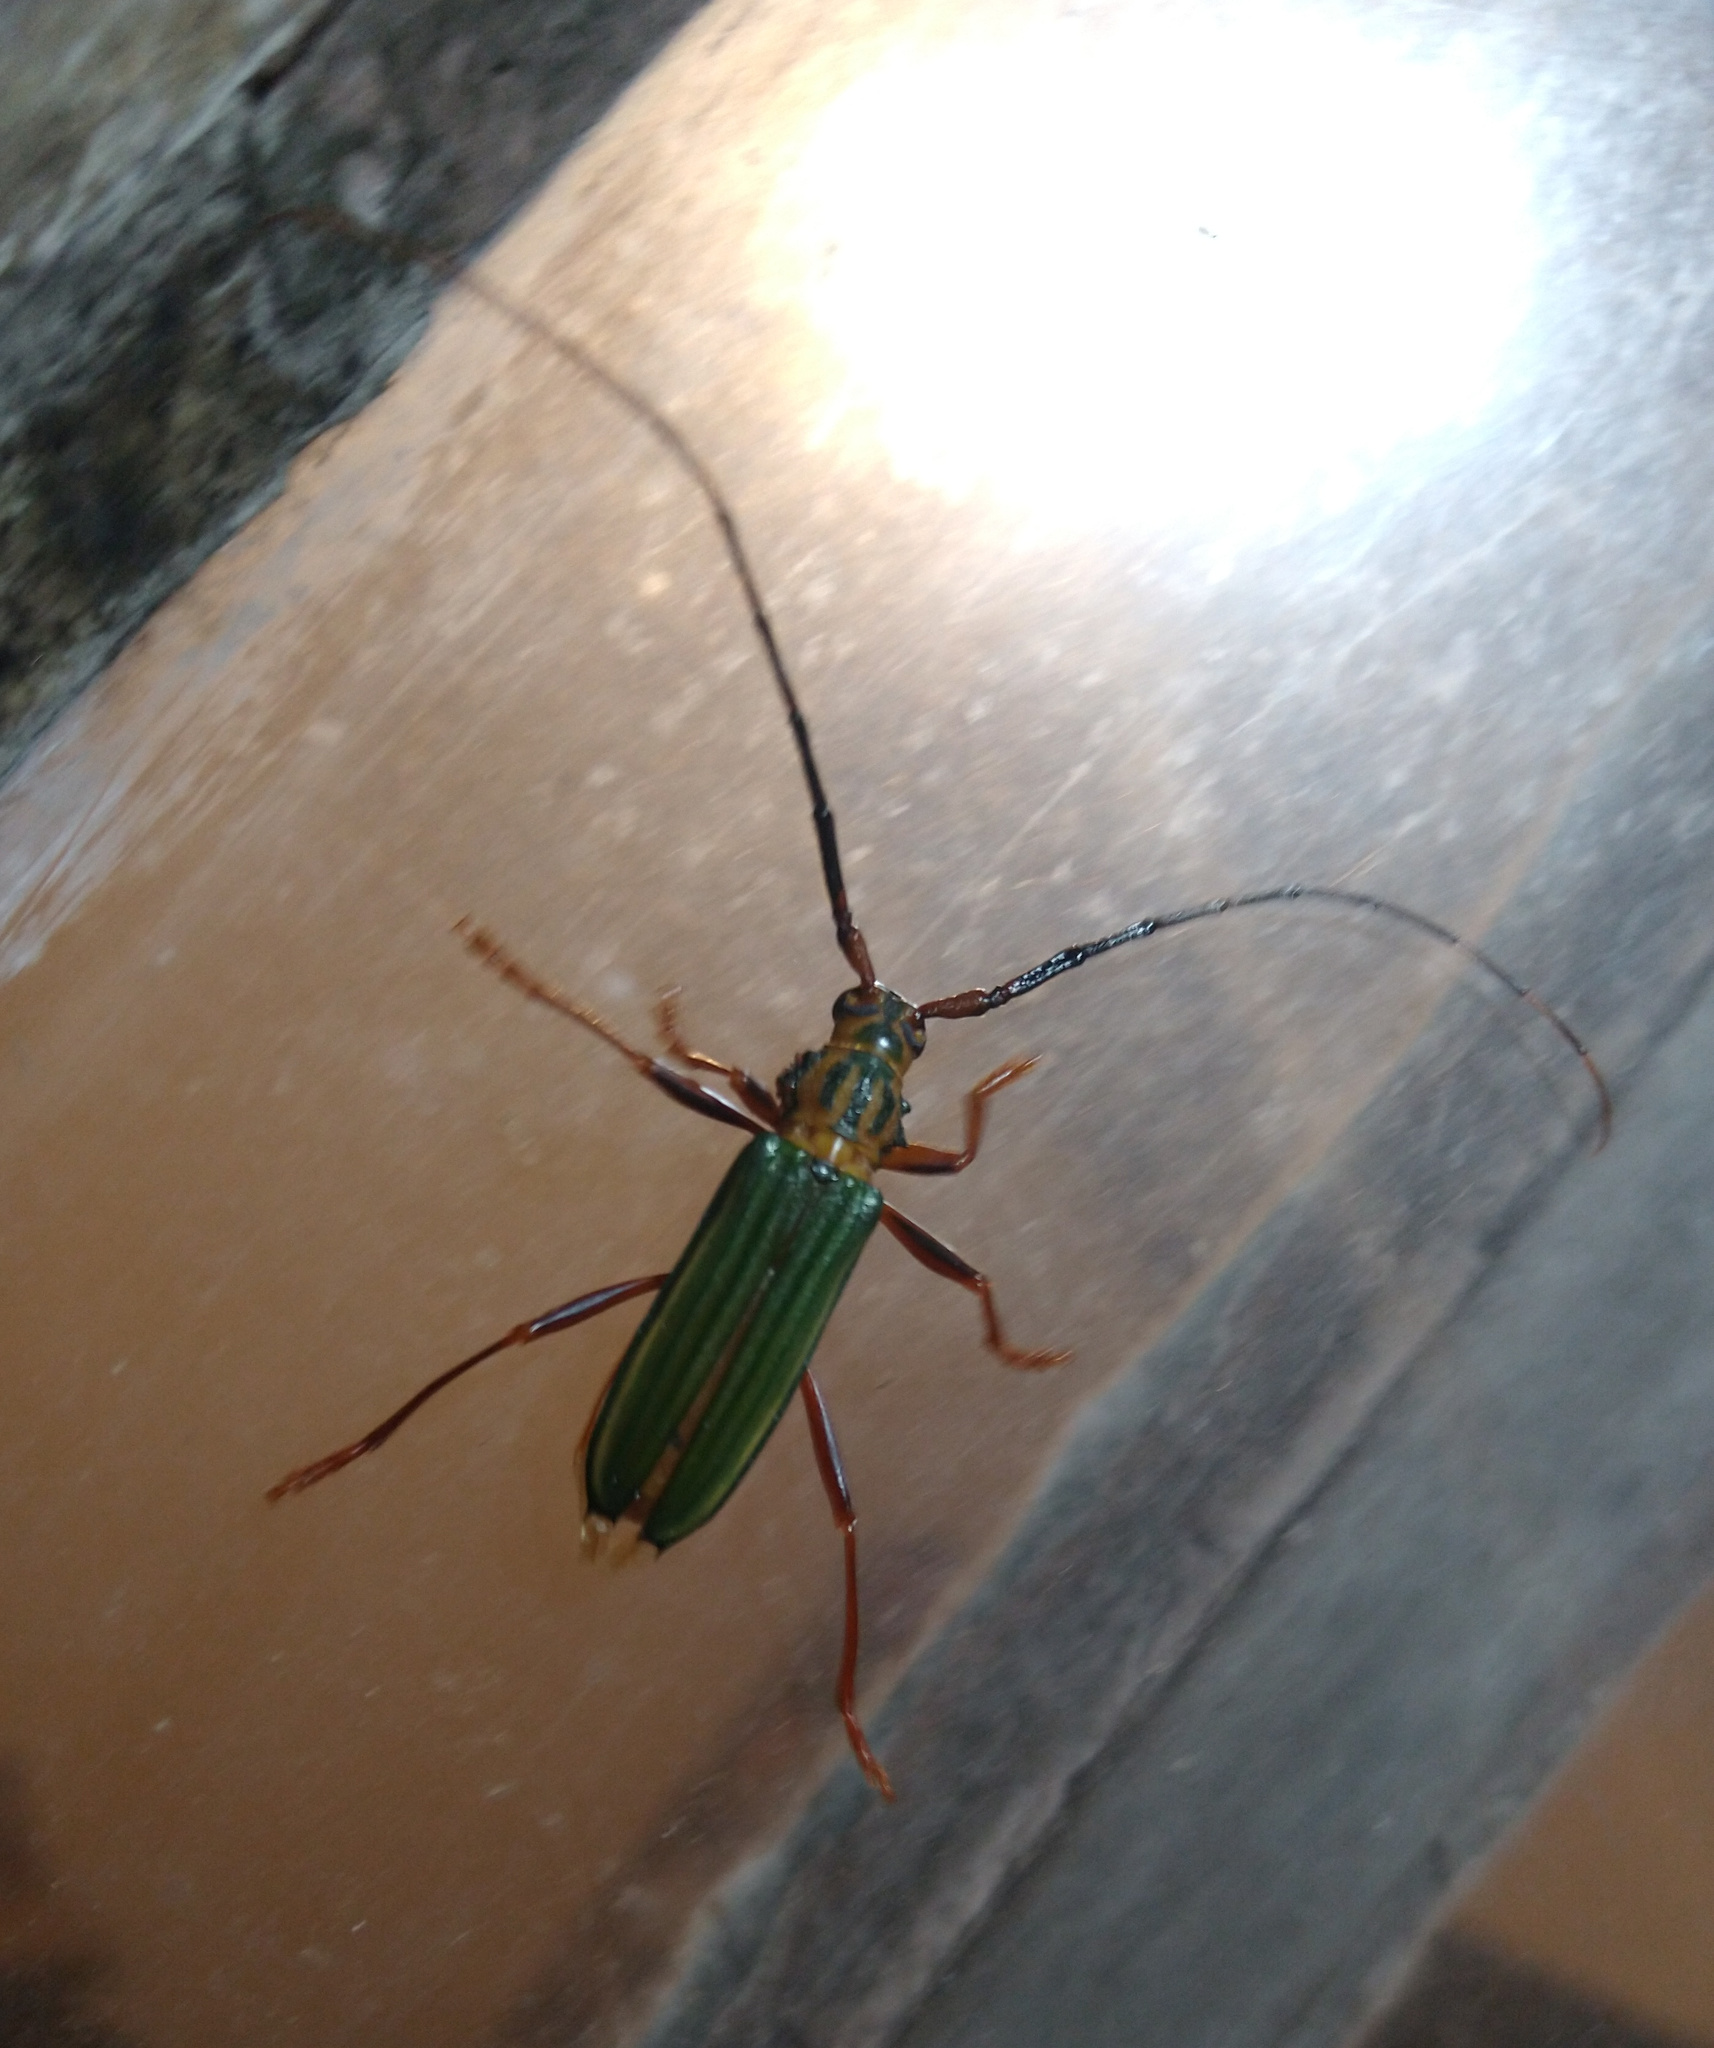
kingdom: Animalia
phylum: Arthropoda
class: Insecta
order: Coleoptera
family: Cerambycidae
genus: Chlorida
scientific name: Chlorida festiva
